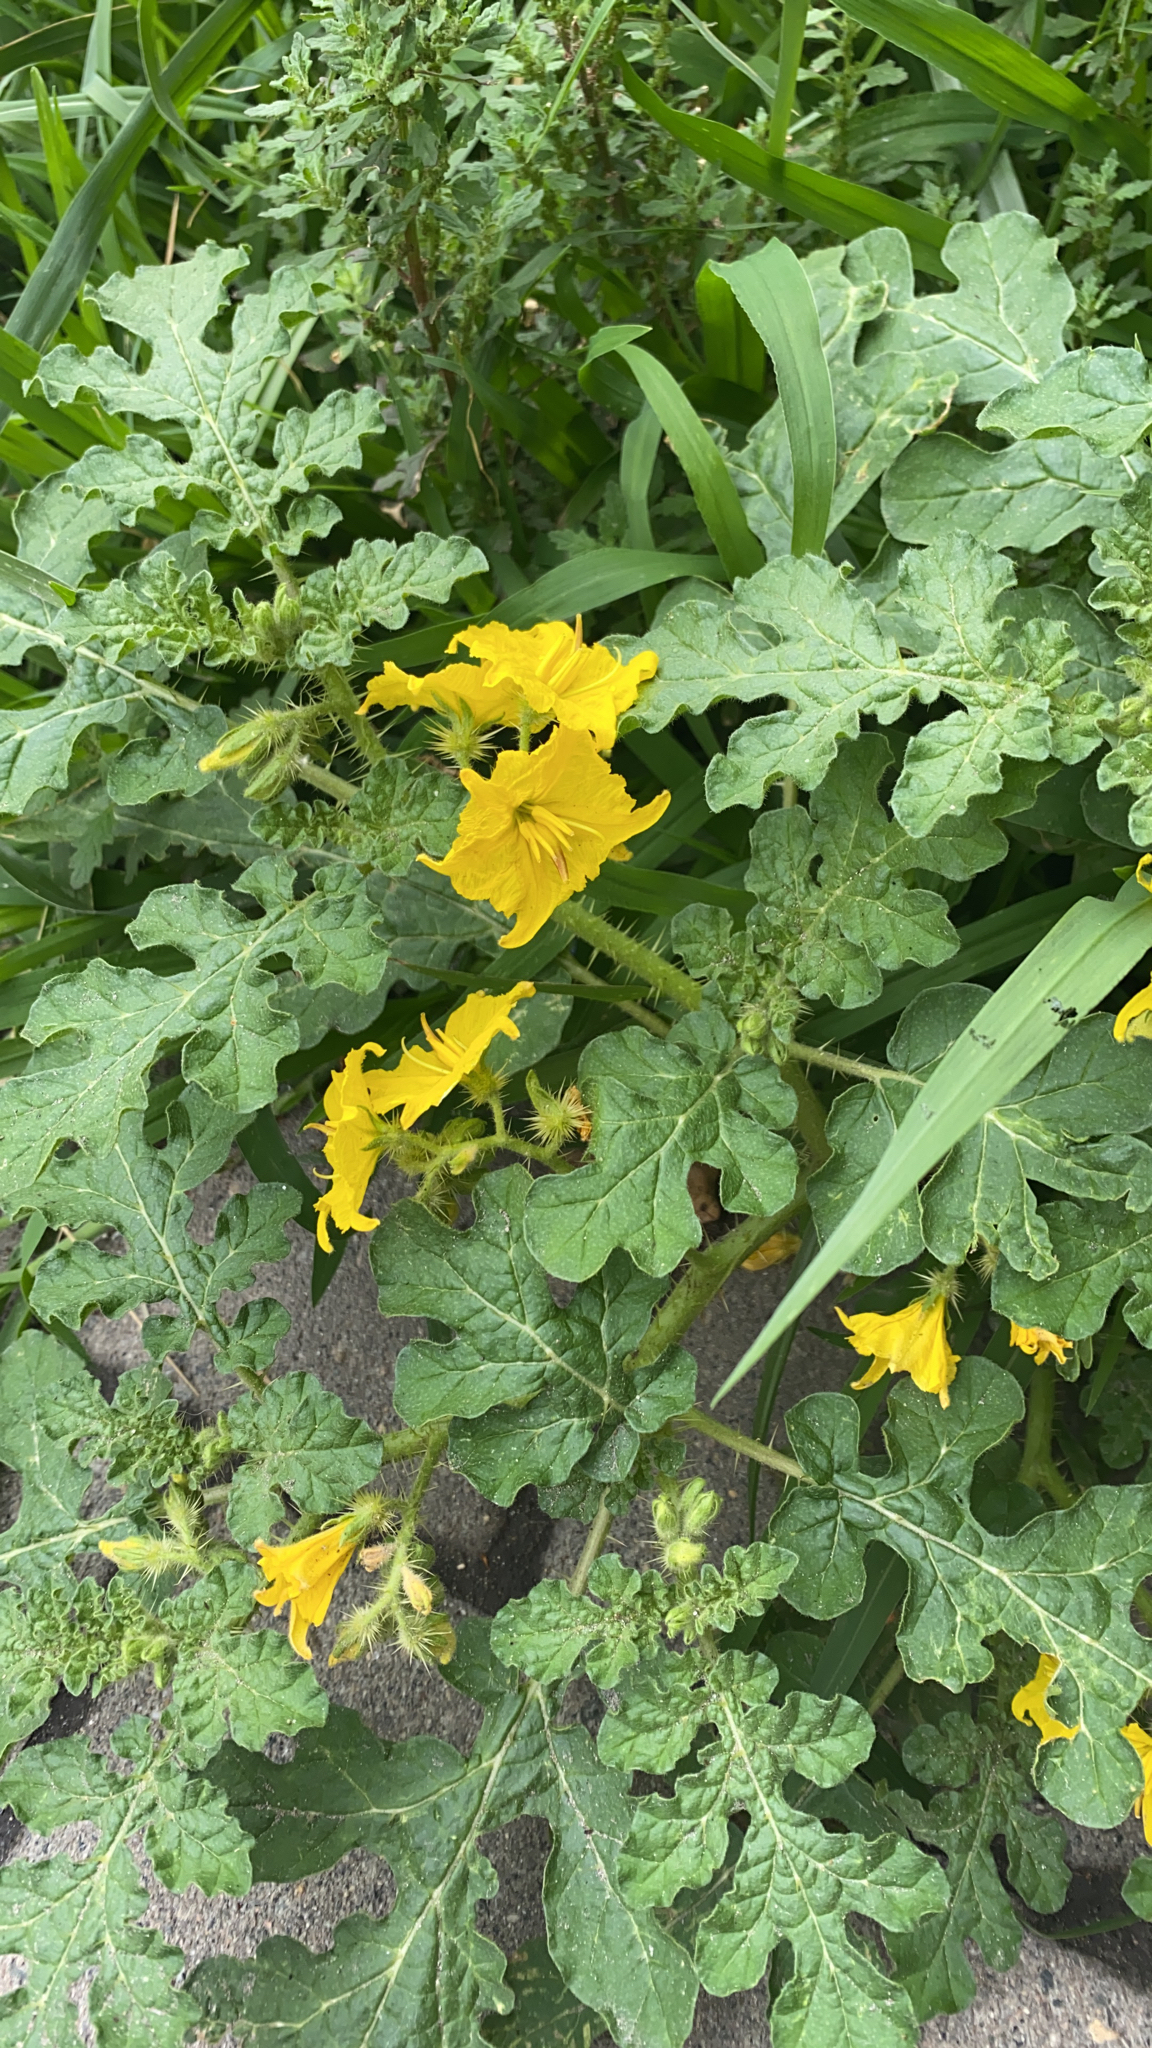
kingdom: Plantae
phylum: Tracheophyta
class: Magnoliopsida
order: Solanales
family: Solanaceae
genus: Solanum
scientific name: Solanum angustifolium
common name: Buffalobur nightshade
